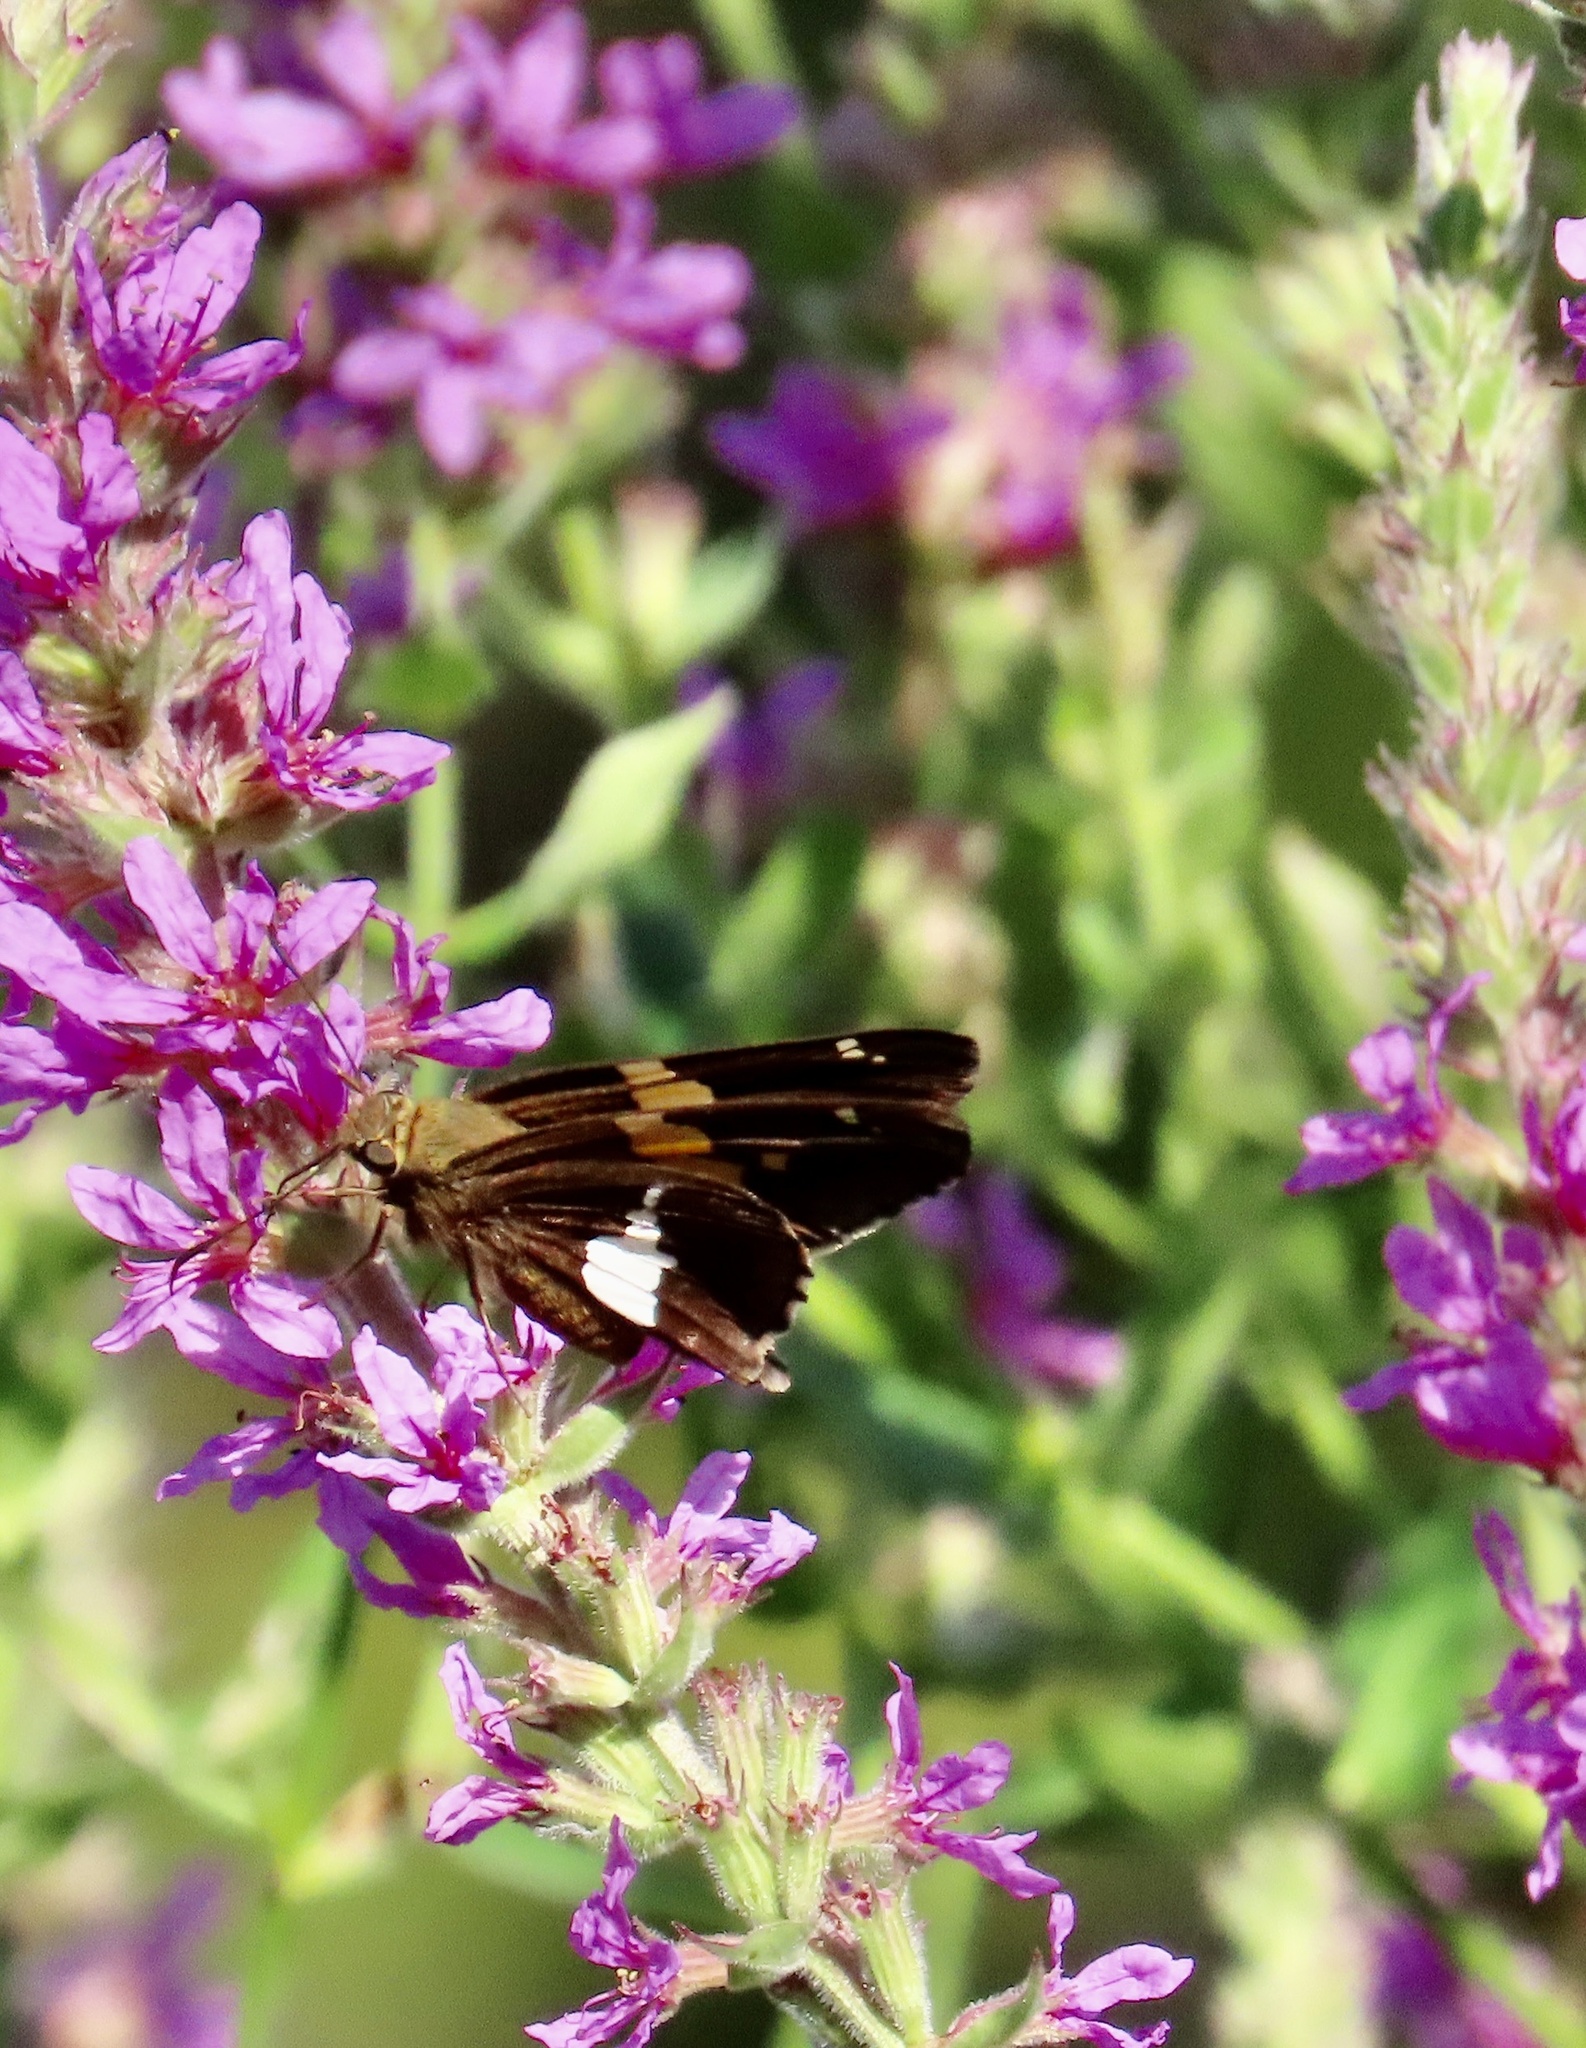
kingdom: Animalia
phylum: Arthropoda
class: Insecta
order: Lepidoptera
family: Hesperiidae
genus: Epargyreus
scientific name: Epargyreus clarus
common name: Silver-spotted skipper
